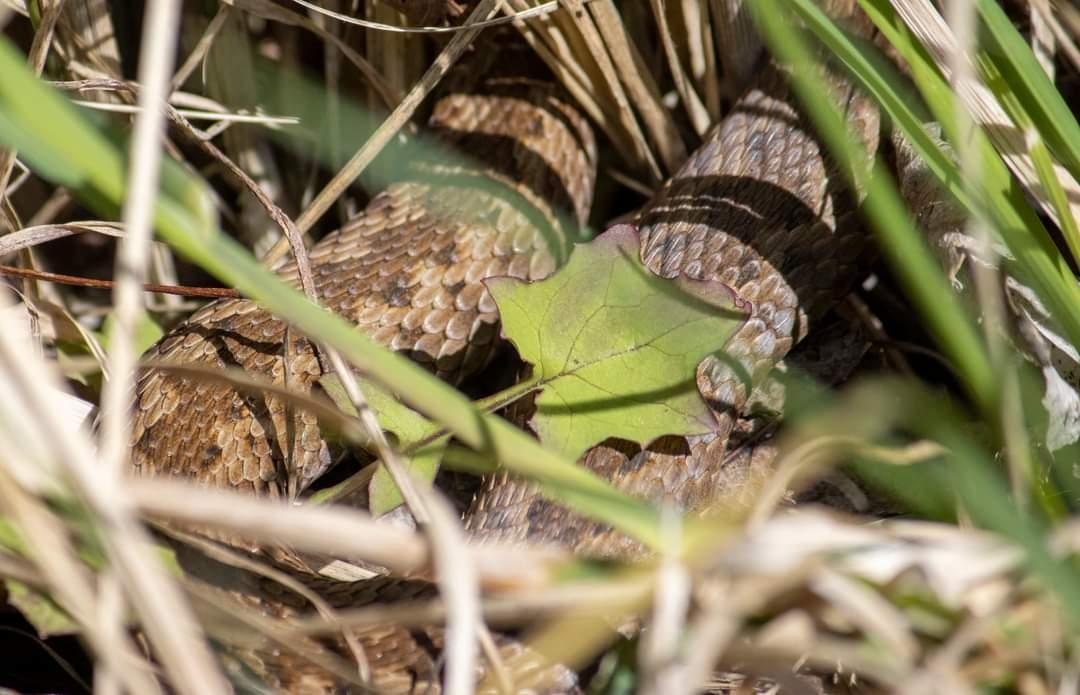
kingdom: Animalia
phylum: Chordata
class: Squamata
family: Viperidae
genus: Vipera
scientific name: Vipera berus
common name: Adder
